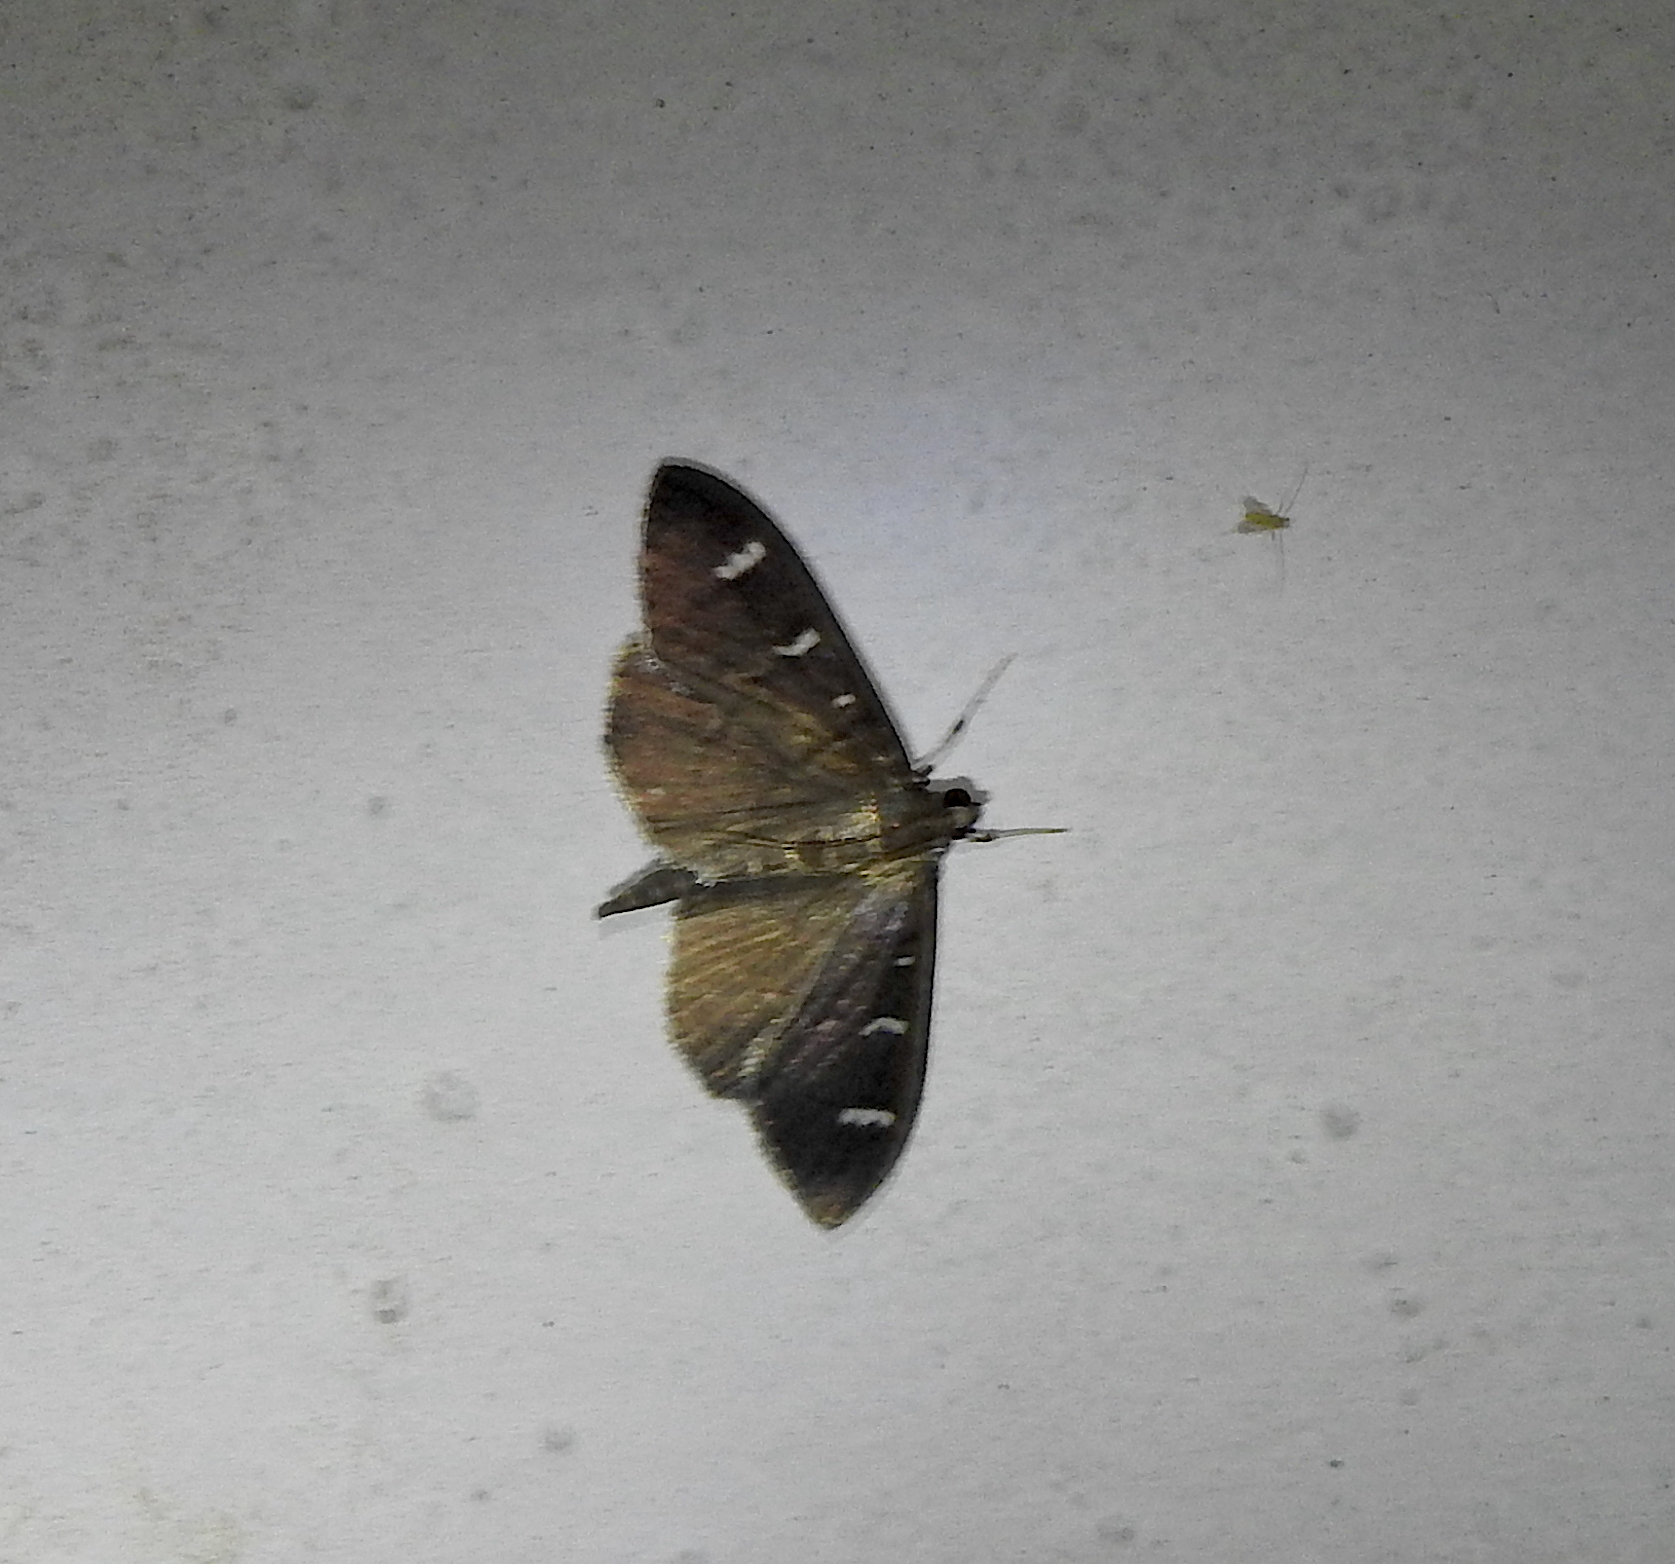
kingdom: Animalia
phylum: Arthropoda
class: Insecta
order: Lepidoptera
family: Crambidae
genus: Syllepte
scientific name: Syllepte adductalis
